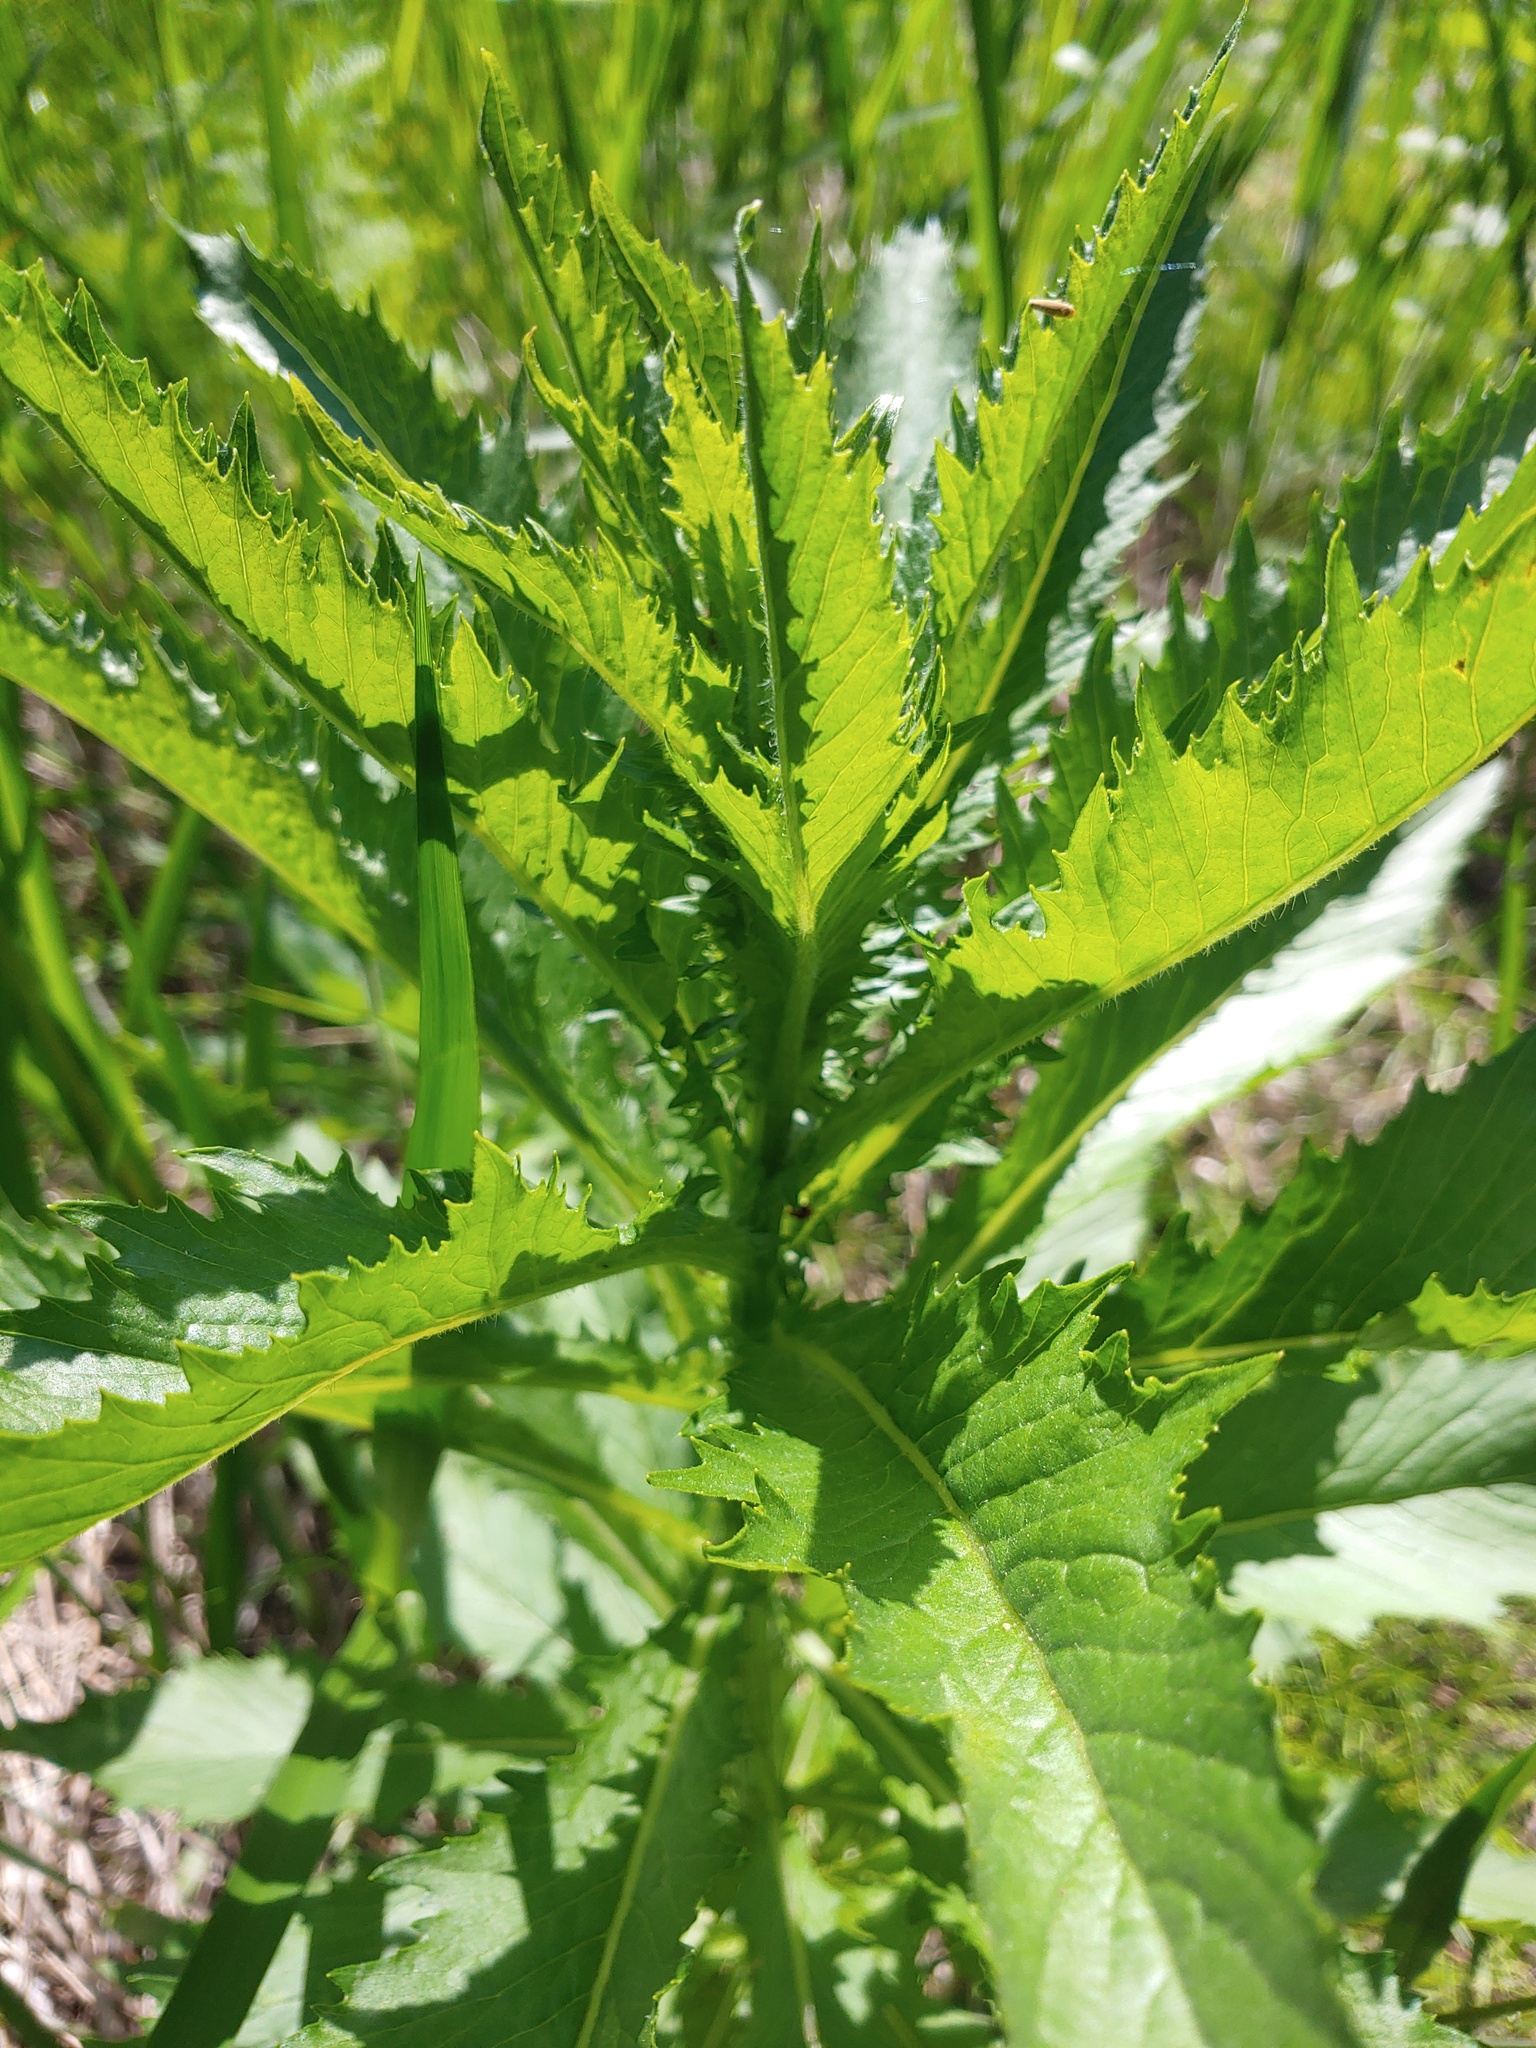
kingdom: Plantae
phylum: Tracheophyta
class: Magnoliopsida
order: Asterales
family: Asteraceae
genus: Erechtites
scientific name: Erechtites hieraciifolius
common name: American burnweed
